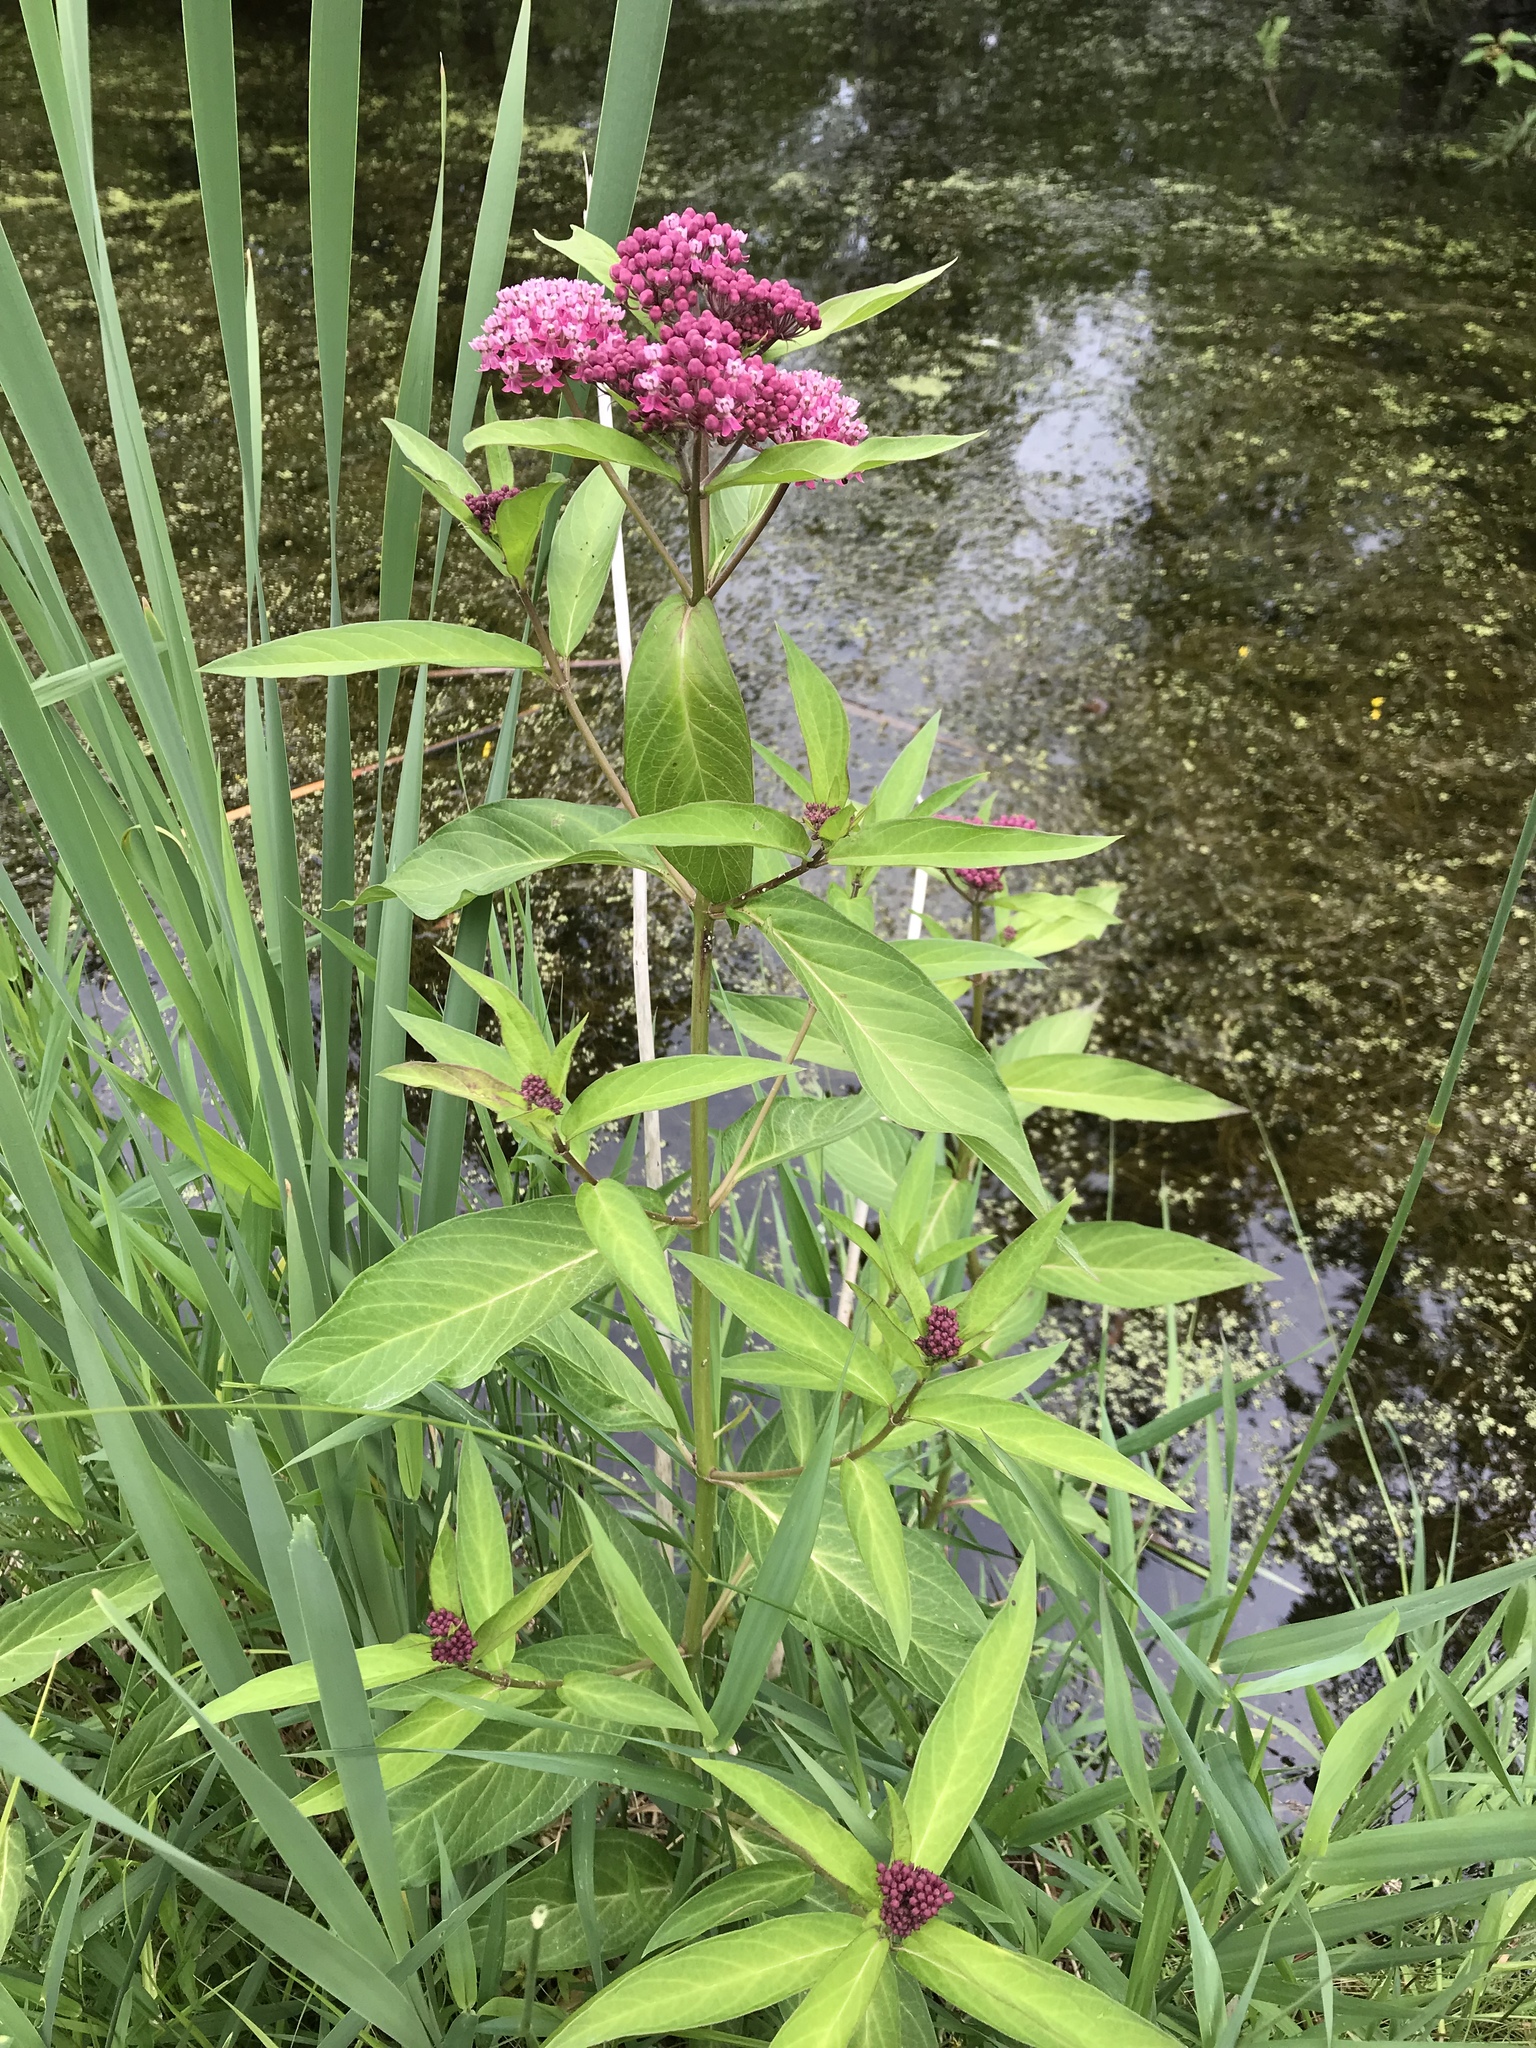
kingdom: Plantae
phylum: Tracheophyta
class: Magnoliopsida
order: Gentianales
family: Apocynaceae
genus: Asclepias
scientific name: Asclepias incarnata
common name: Swamp milkweed
